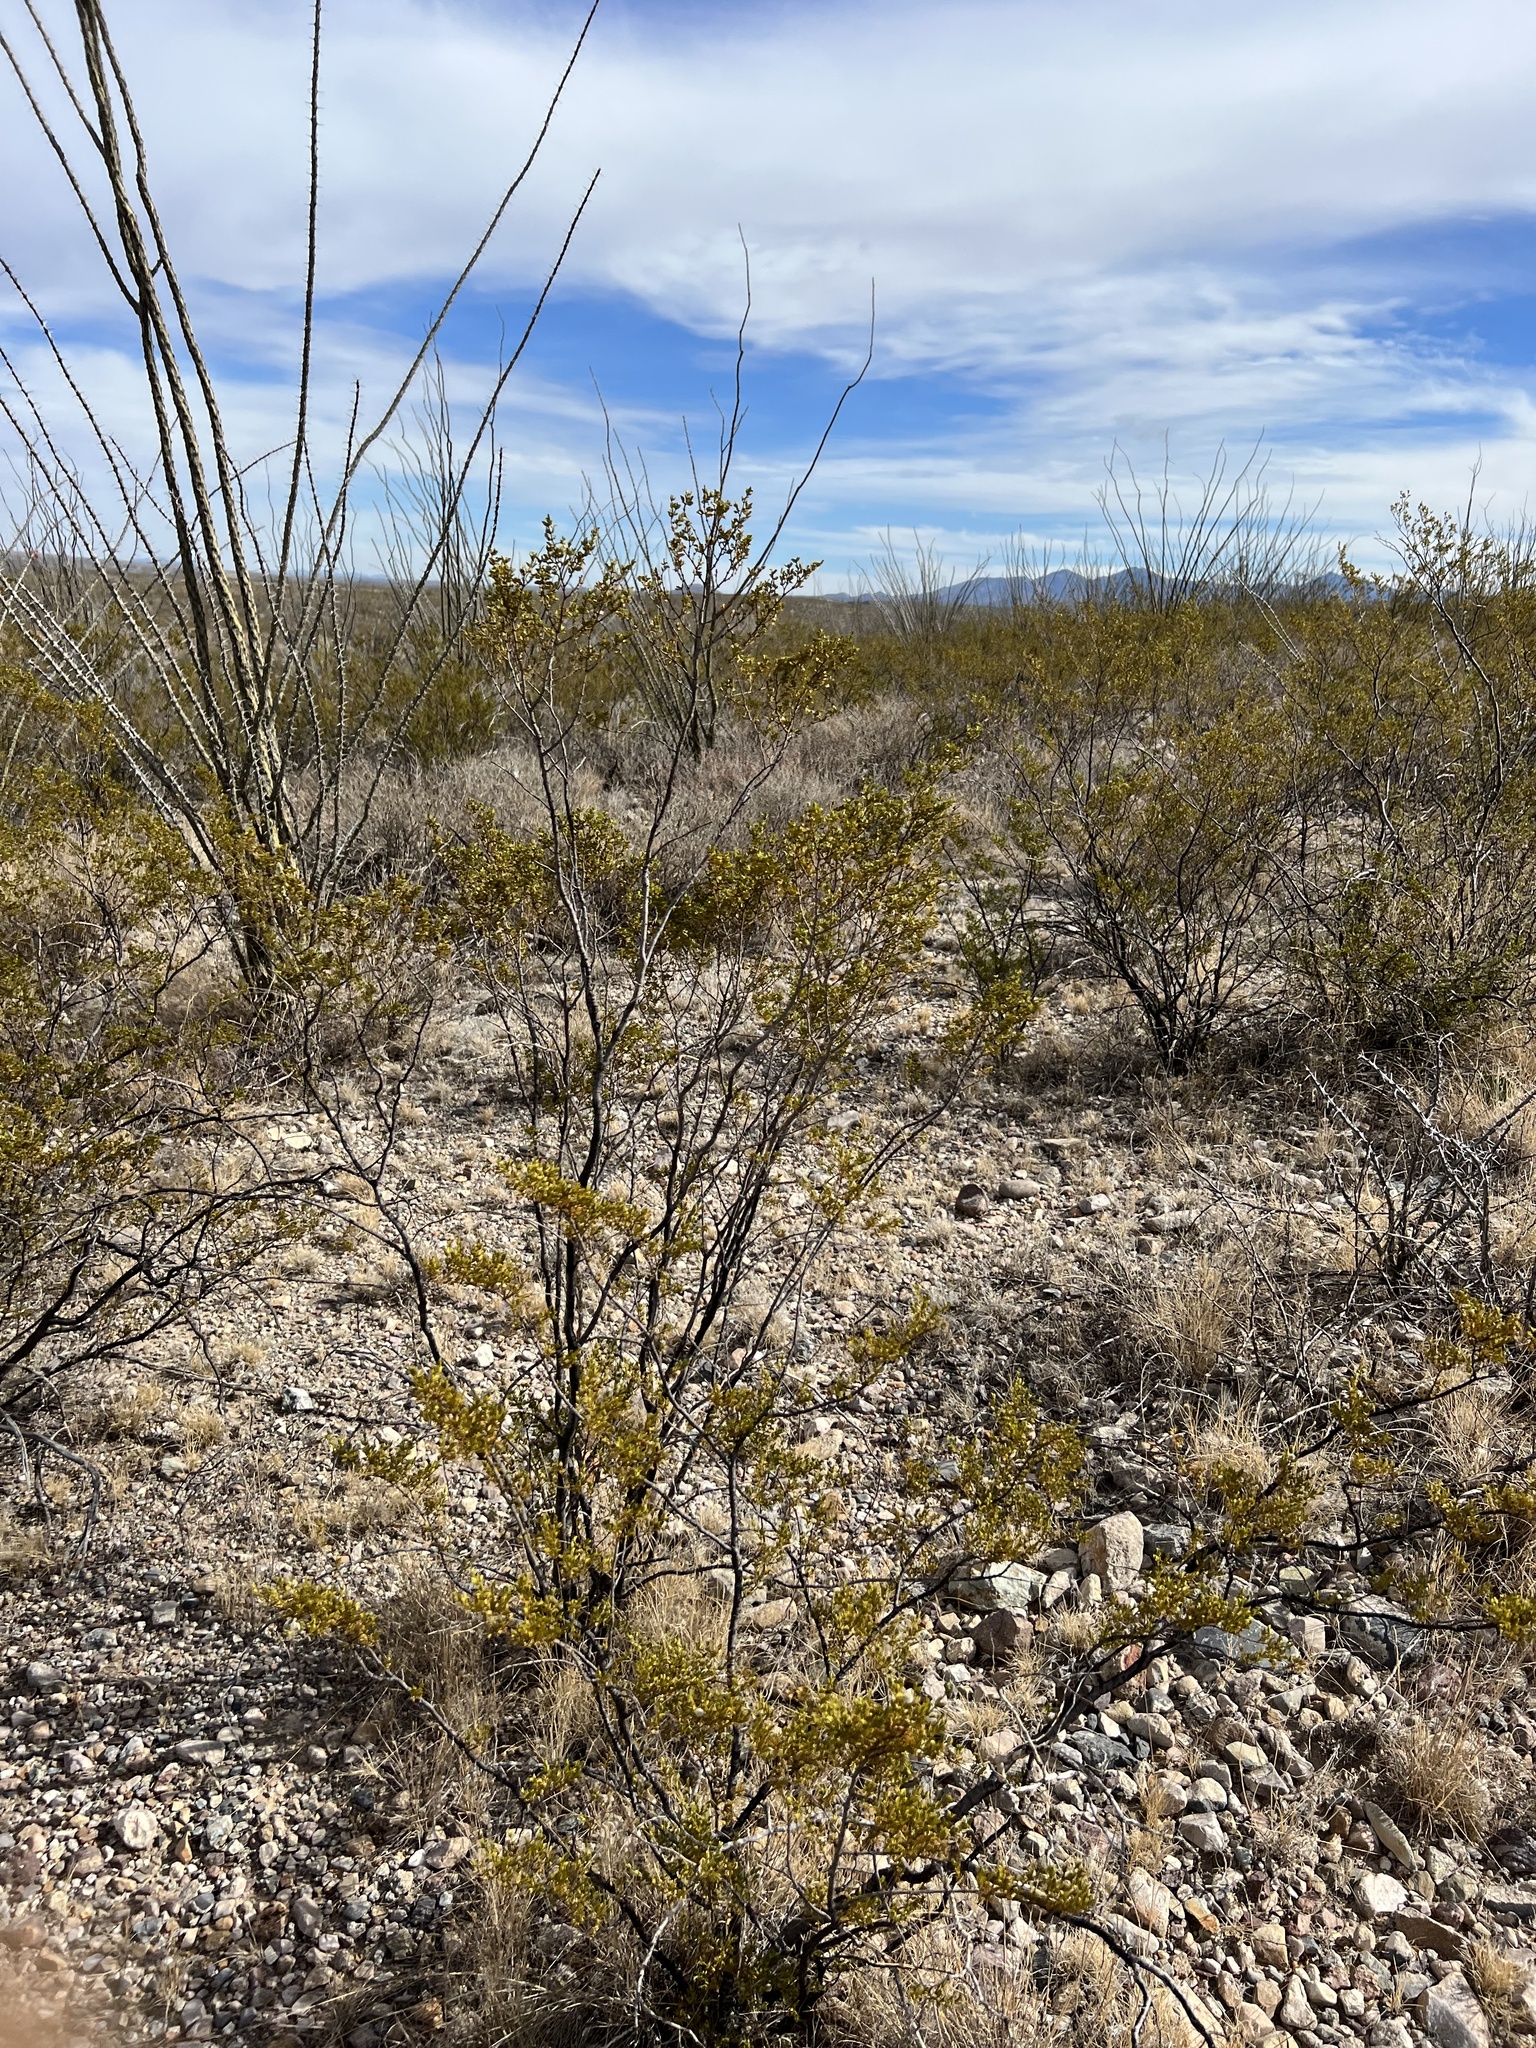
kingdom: Plantae
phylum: Tracheophyta
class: Magnoliopsida
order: Zygophyllales
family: Zygophyllaceae
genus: Larrea
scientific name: Larrea tridentata
